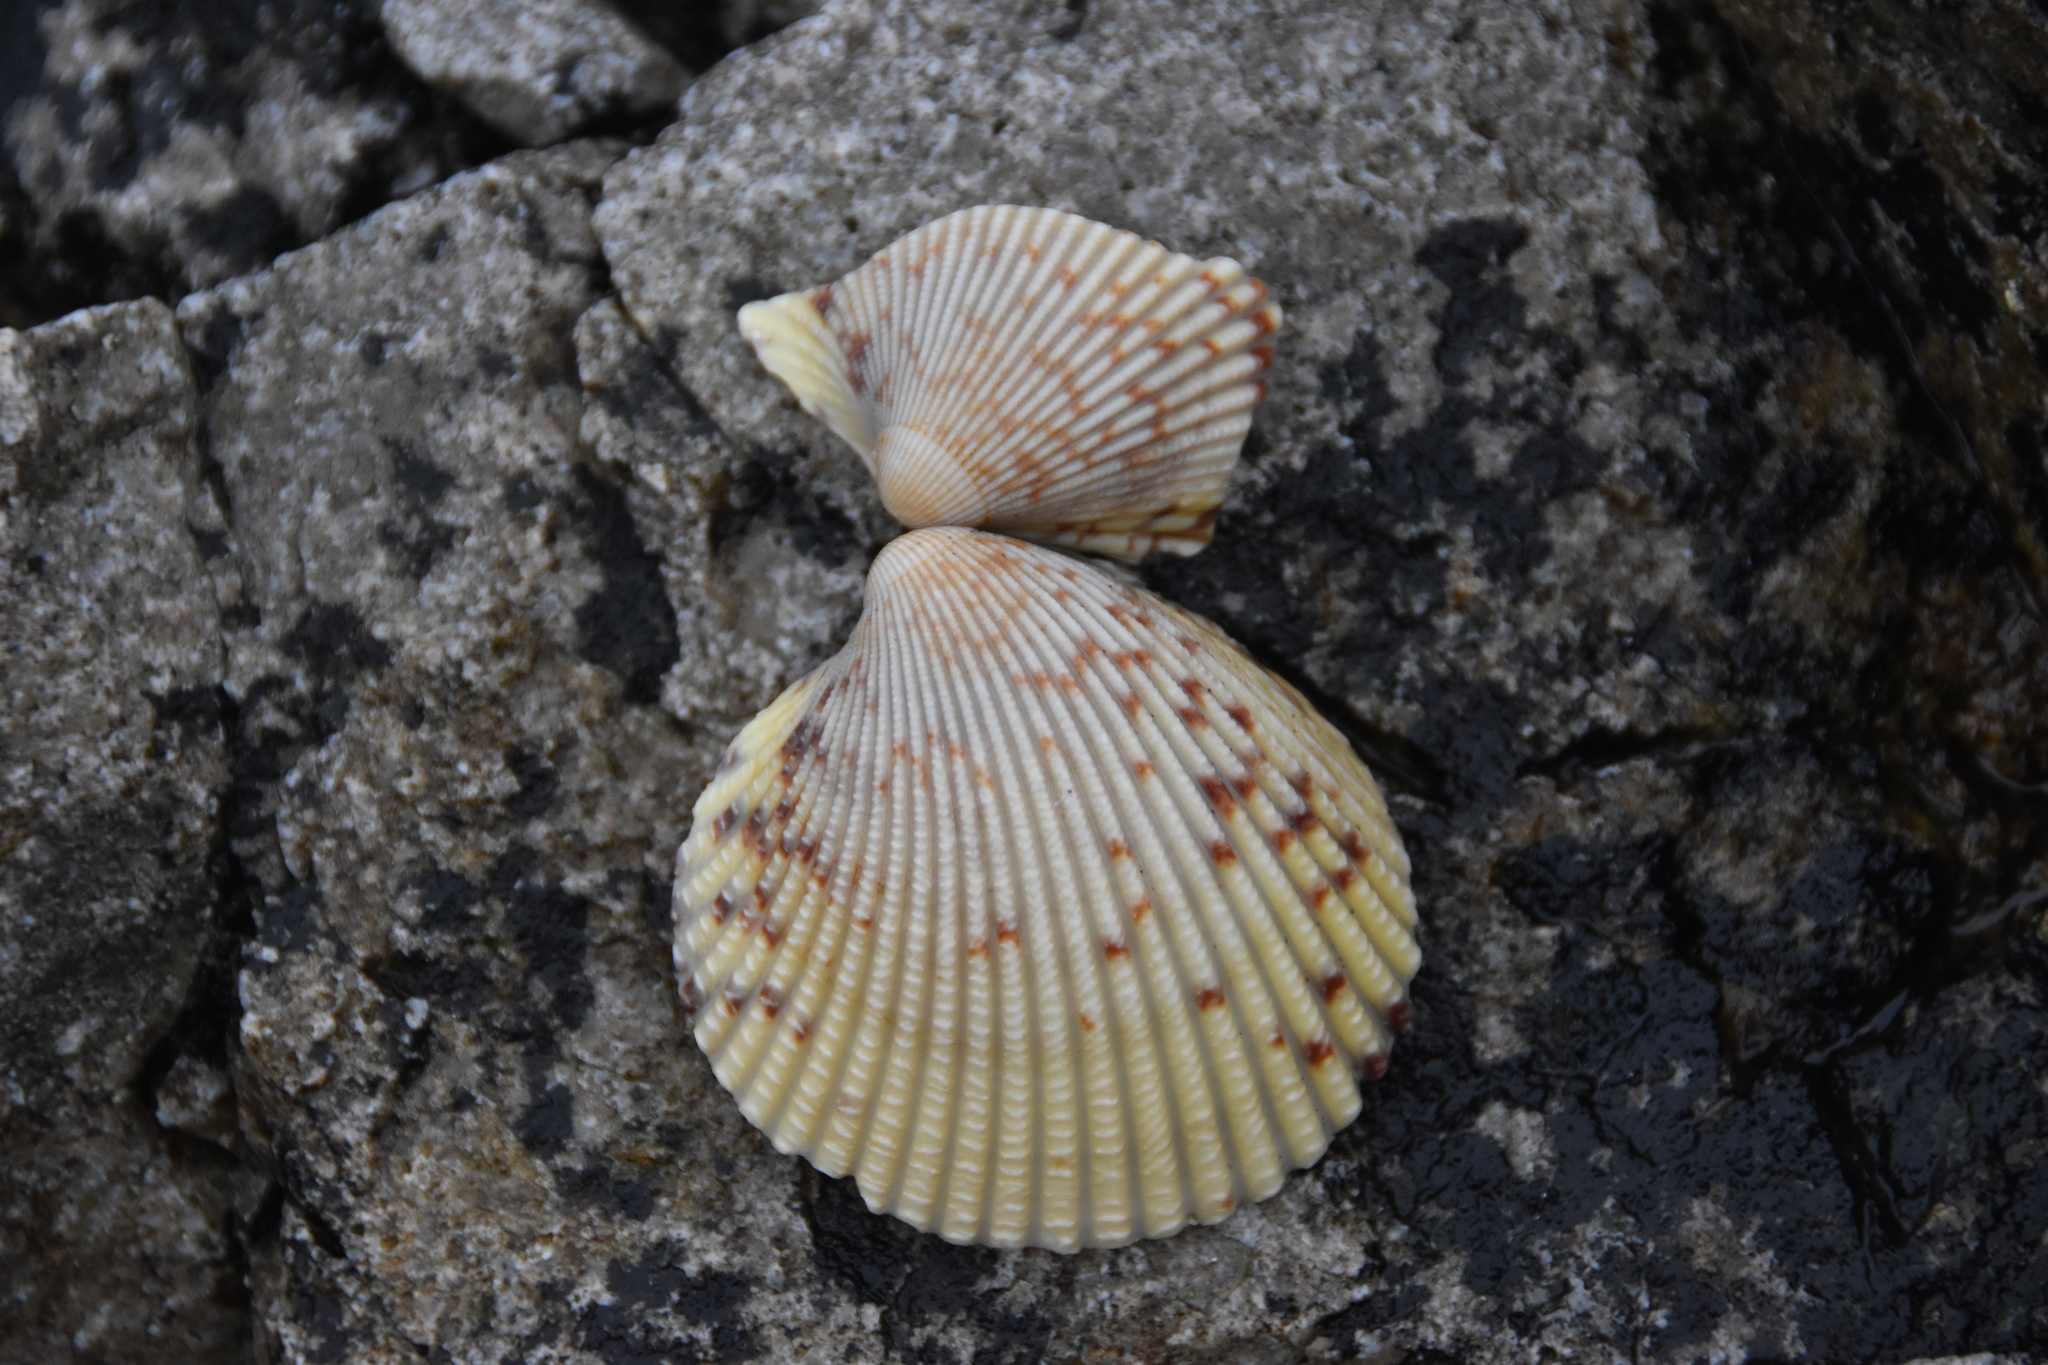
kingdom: Animalia
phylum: Mollusca
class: Bivalvia
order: Cardiida
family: Cardiidae
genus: Clinocardium
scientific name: Clinocardium nuttallii
